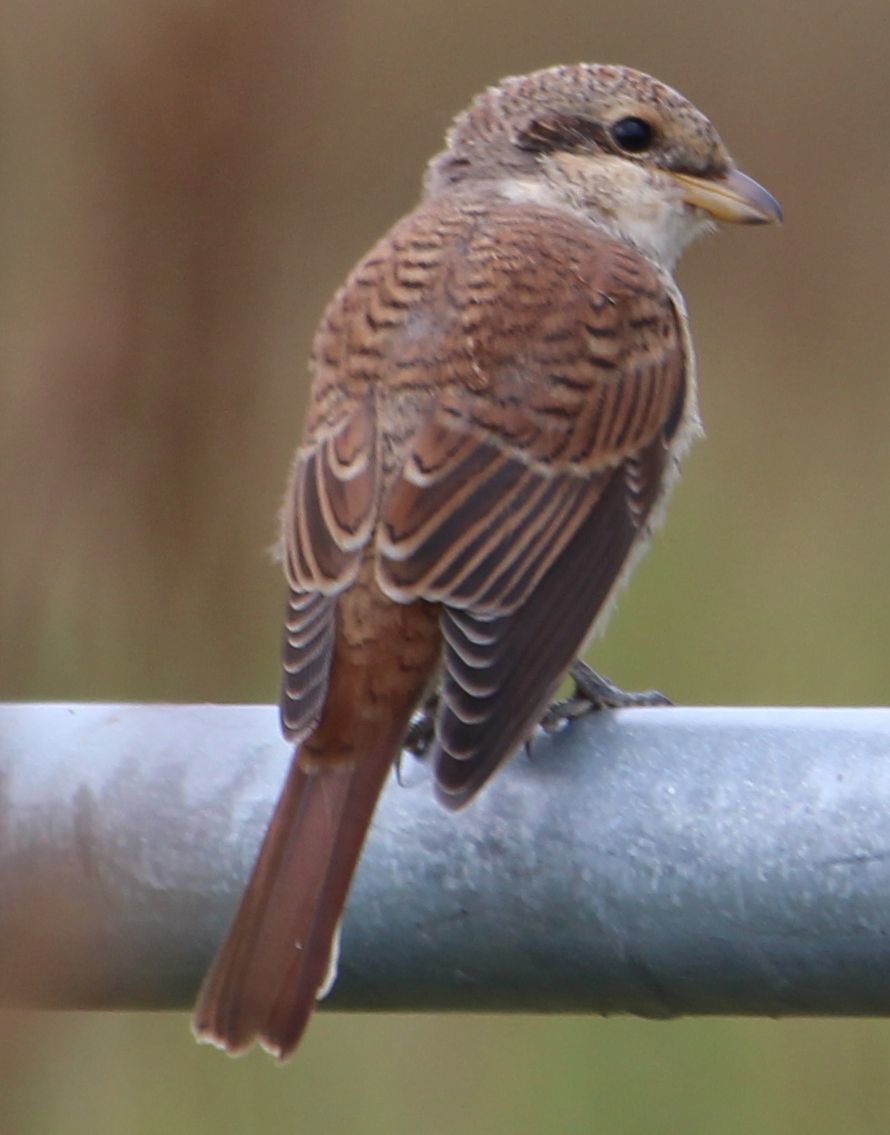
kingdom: Animalia
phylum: Chordata
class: Aves
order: Passeriformes
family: Laniidae
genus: Lanius
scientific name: Lanius collurio
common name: Red-backed shrike
